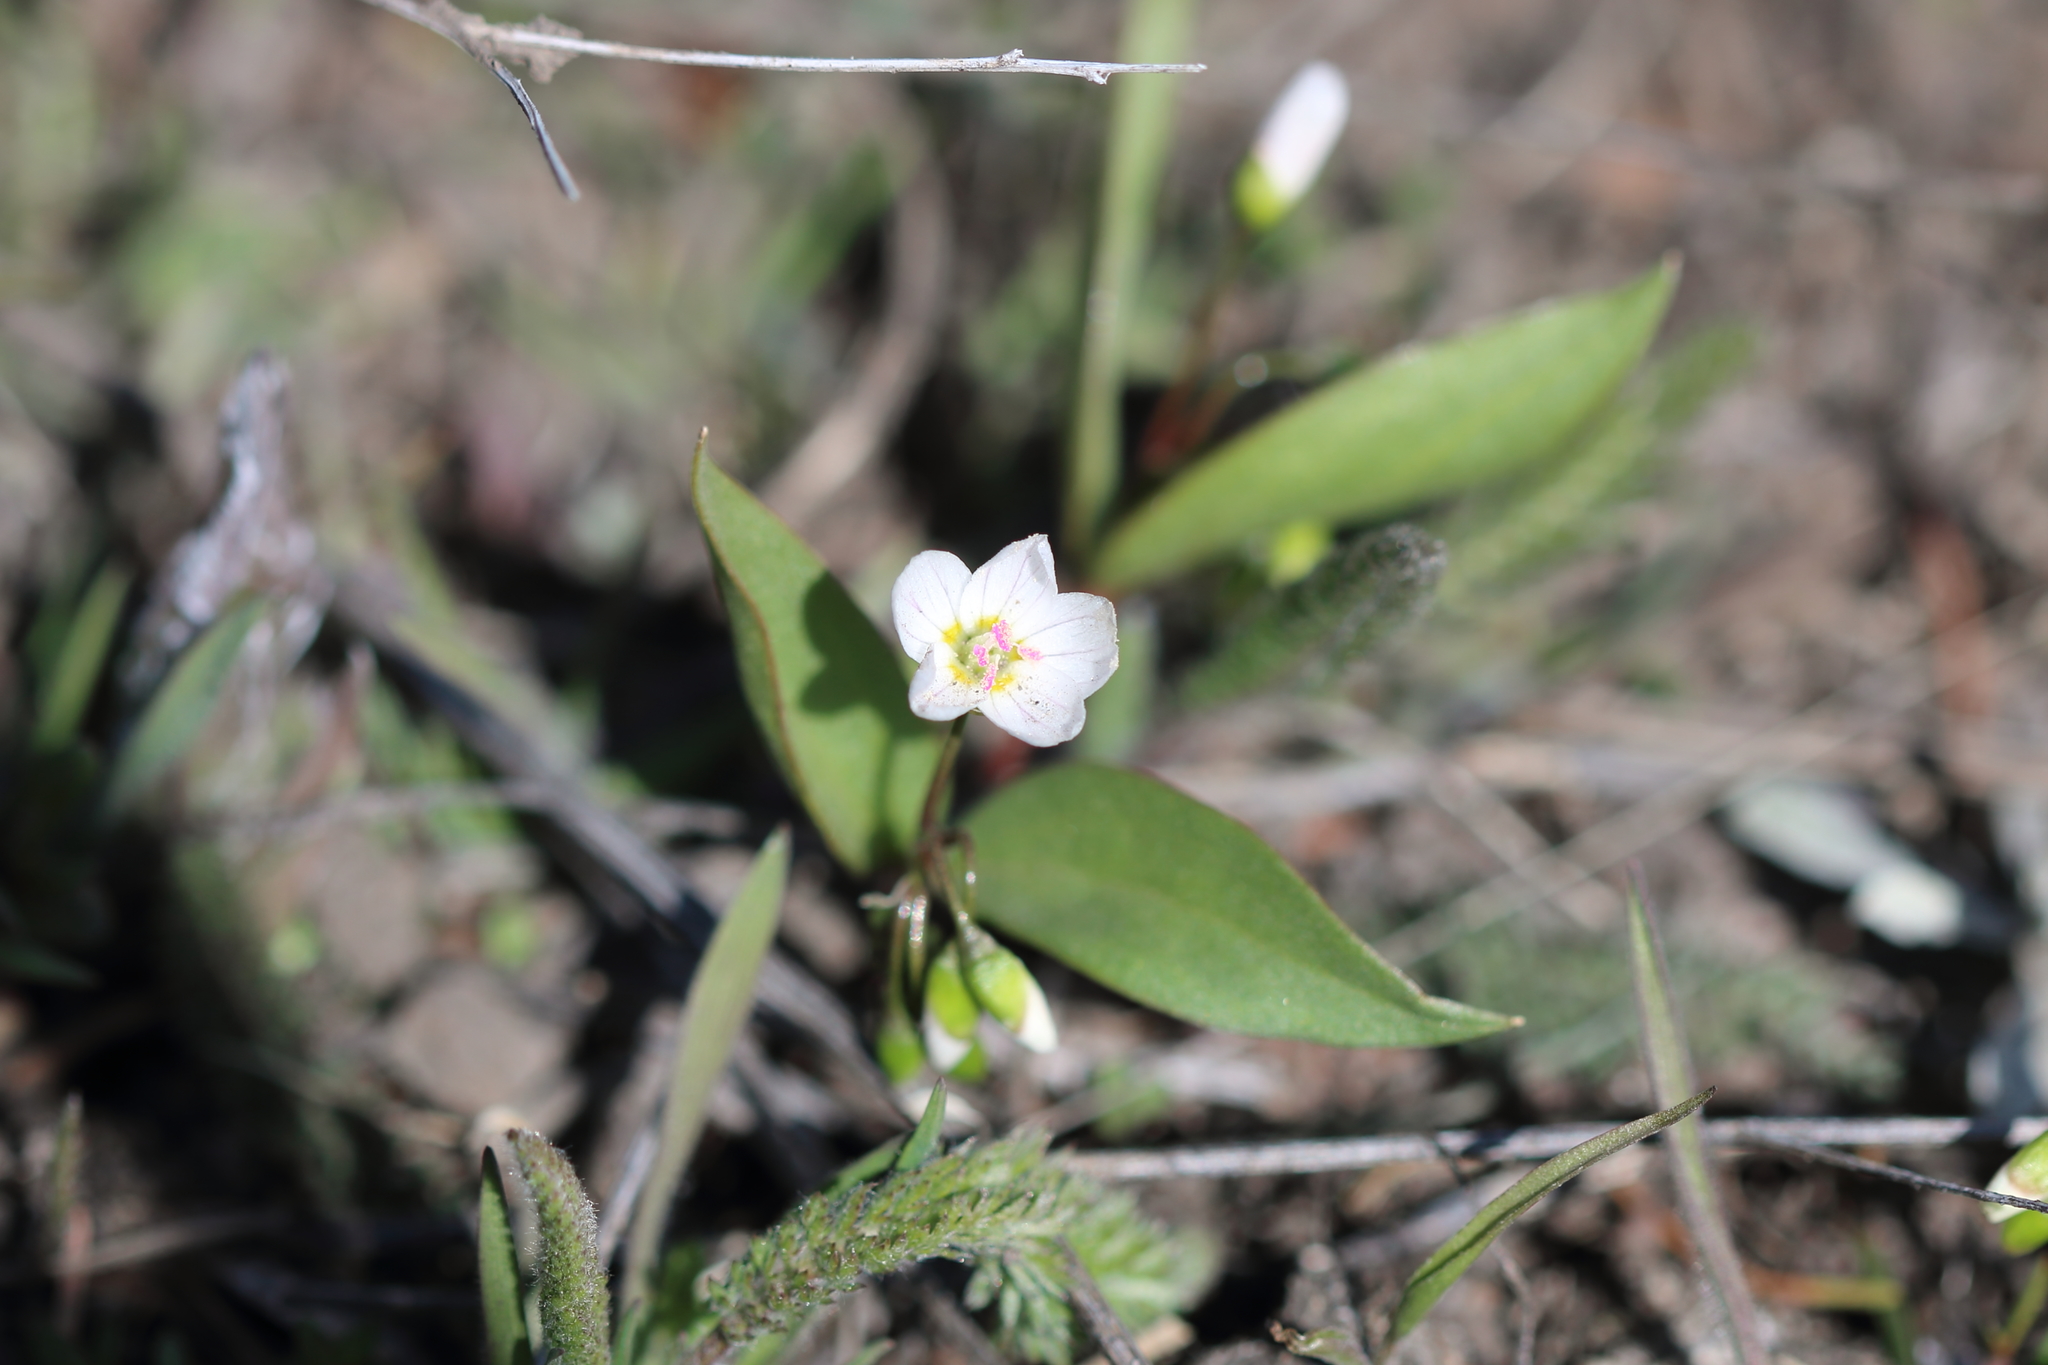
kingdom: Plantae
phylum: Tracheophyta
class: Magnoliopsida
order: Caryophyllales
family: Montiaceae
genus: Claytonia
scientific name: Claytonia lanceolata
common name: Western spring-beauty
